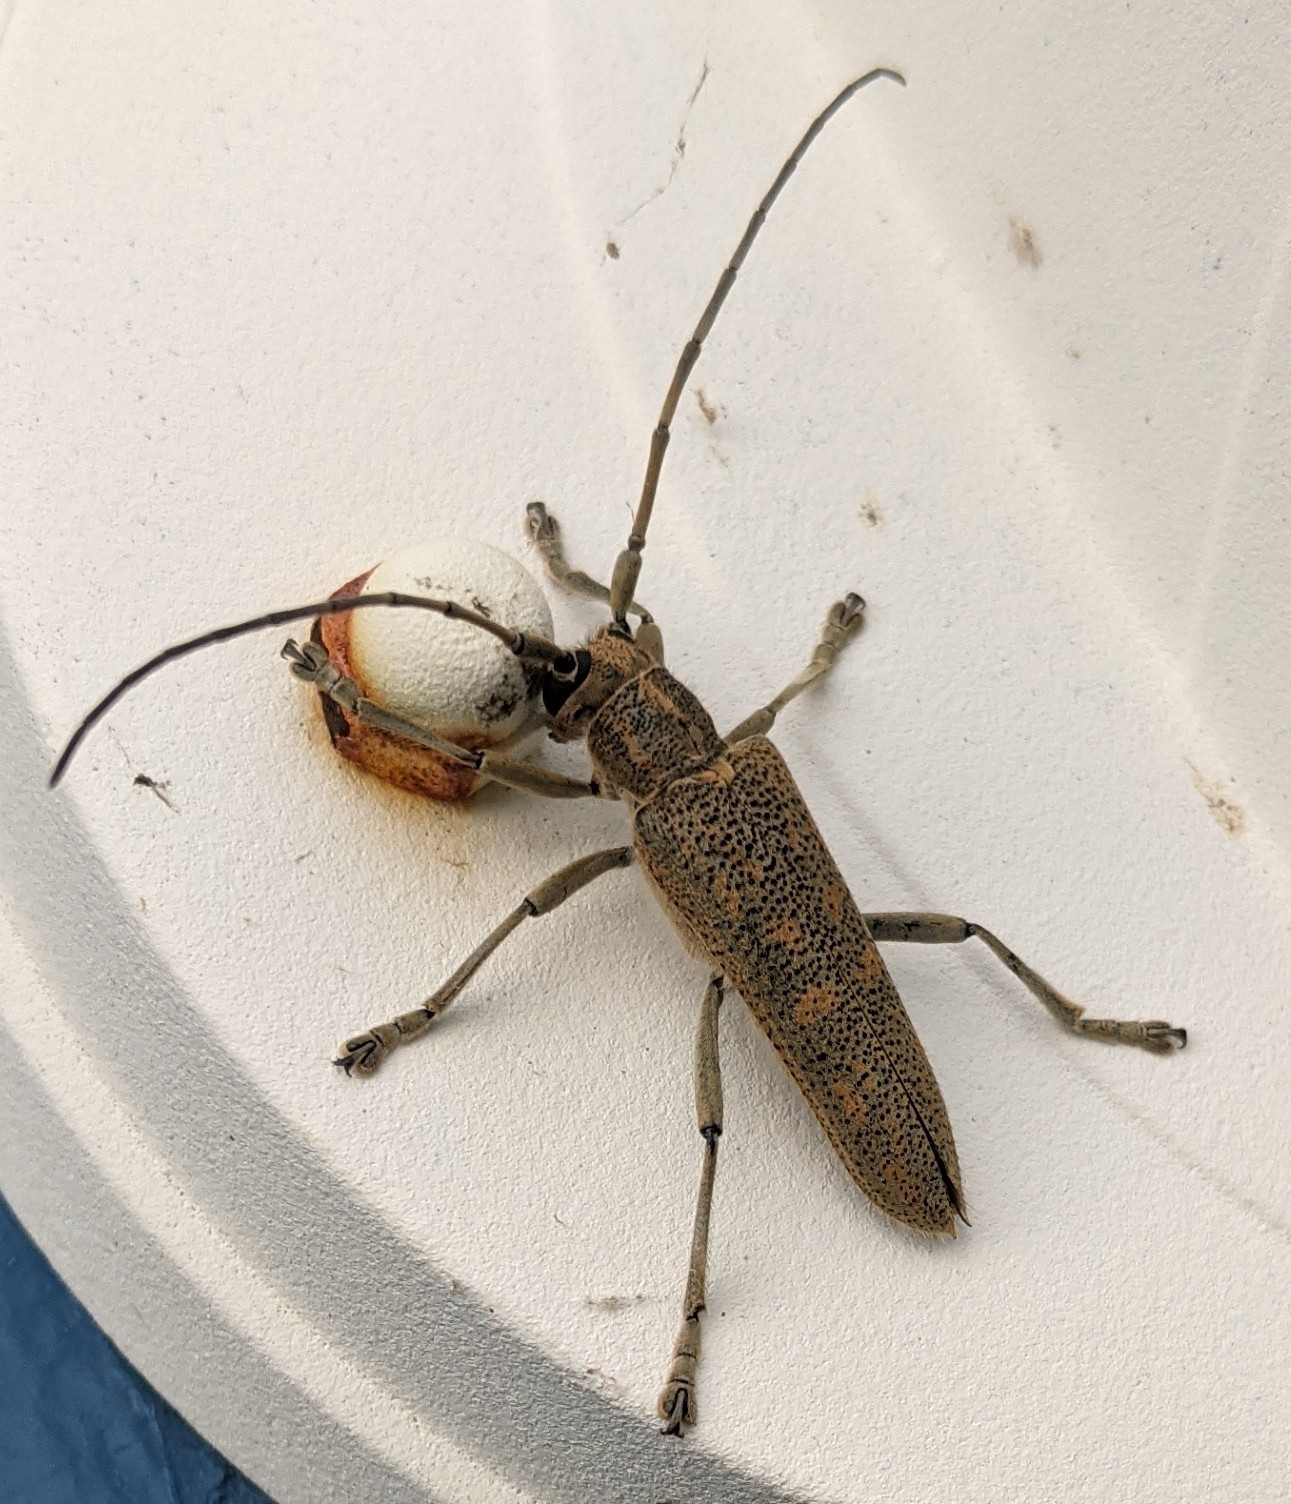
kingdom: Animalia
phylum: Arthropoda
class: Insecta
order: Coleoptera
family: Cerambycidae
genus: Saperda
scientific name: Saperda calcarata
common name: Poplar borer
